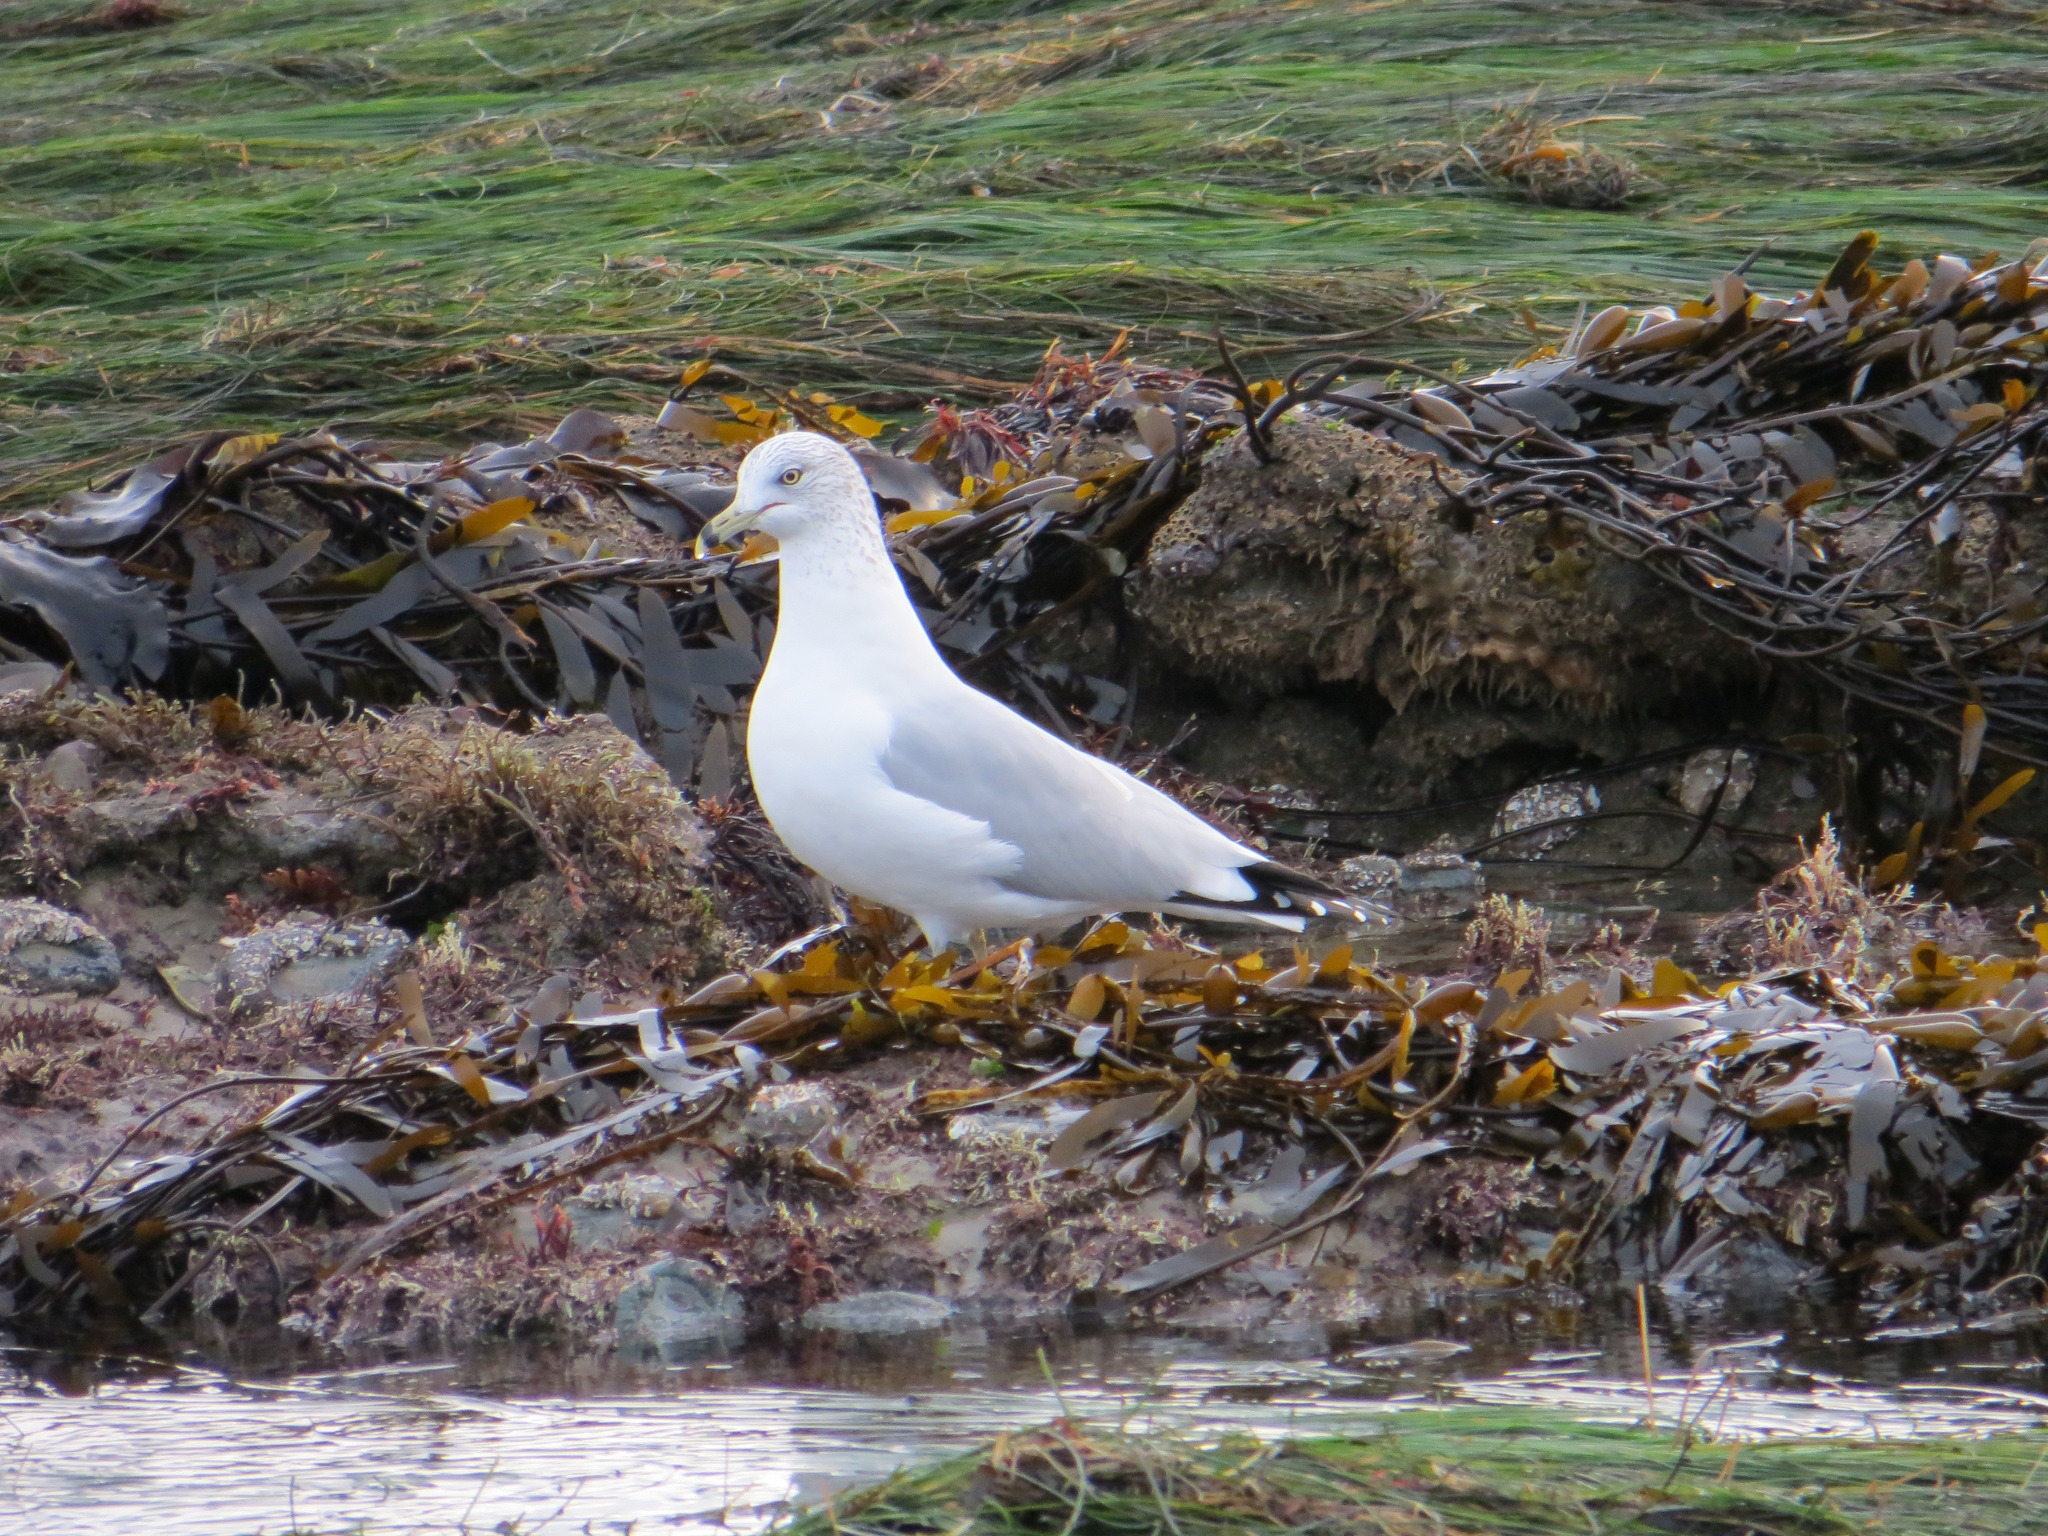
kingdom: Animalia
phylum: Chordata
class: Aves
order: Charadriiformes
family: Laridae
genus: Larus
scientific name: Larus delawarensis
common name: Ring-billed gull
